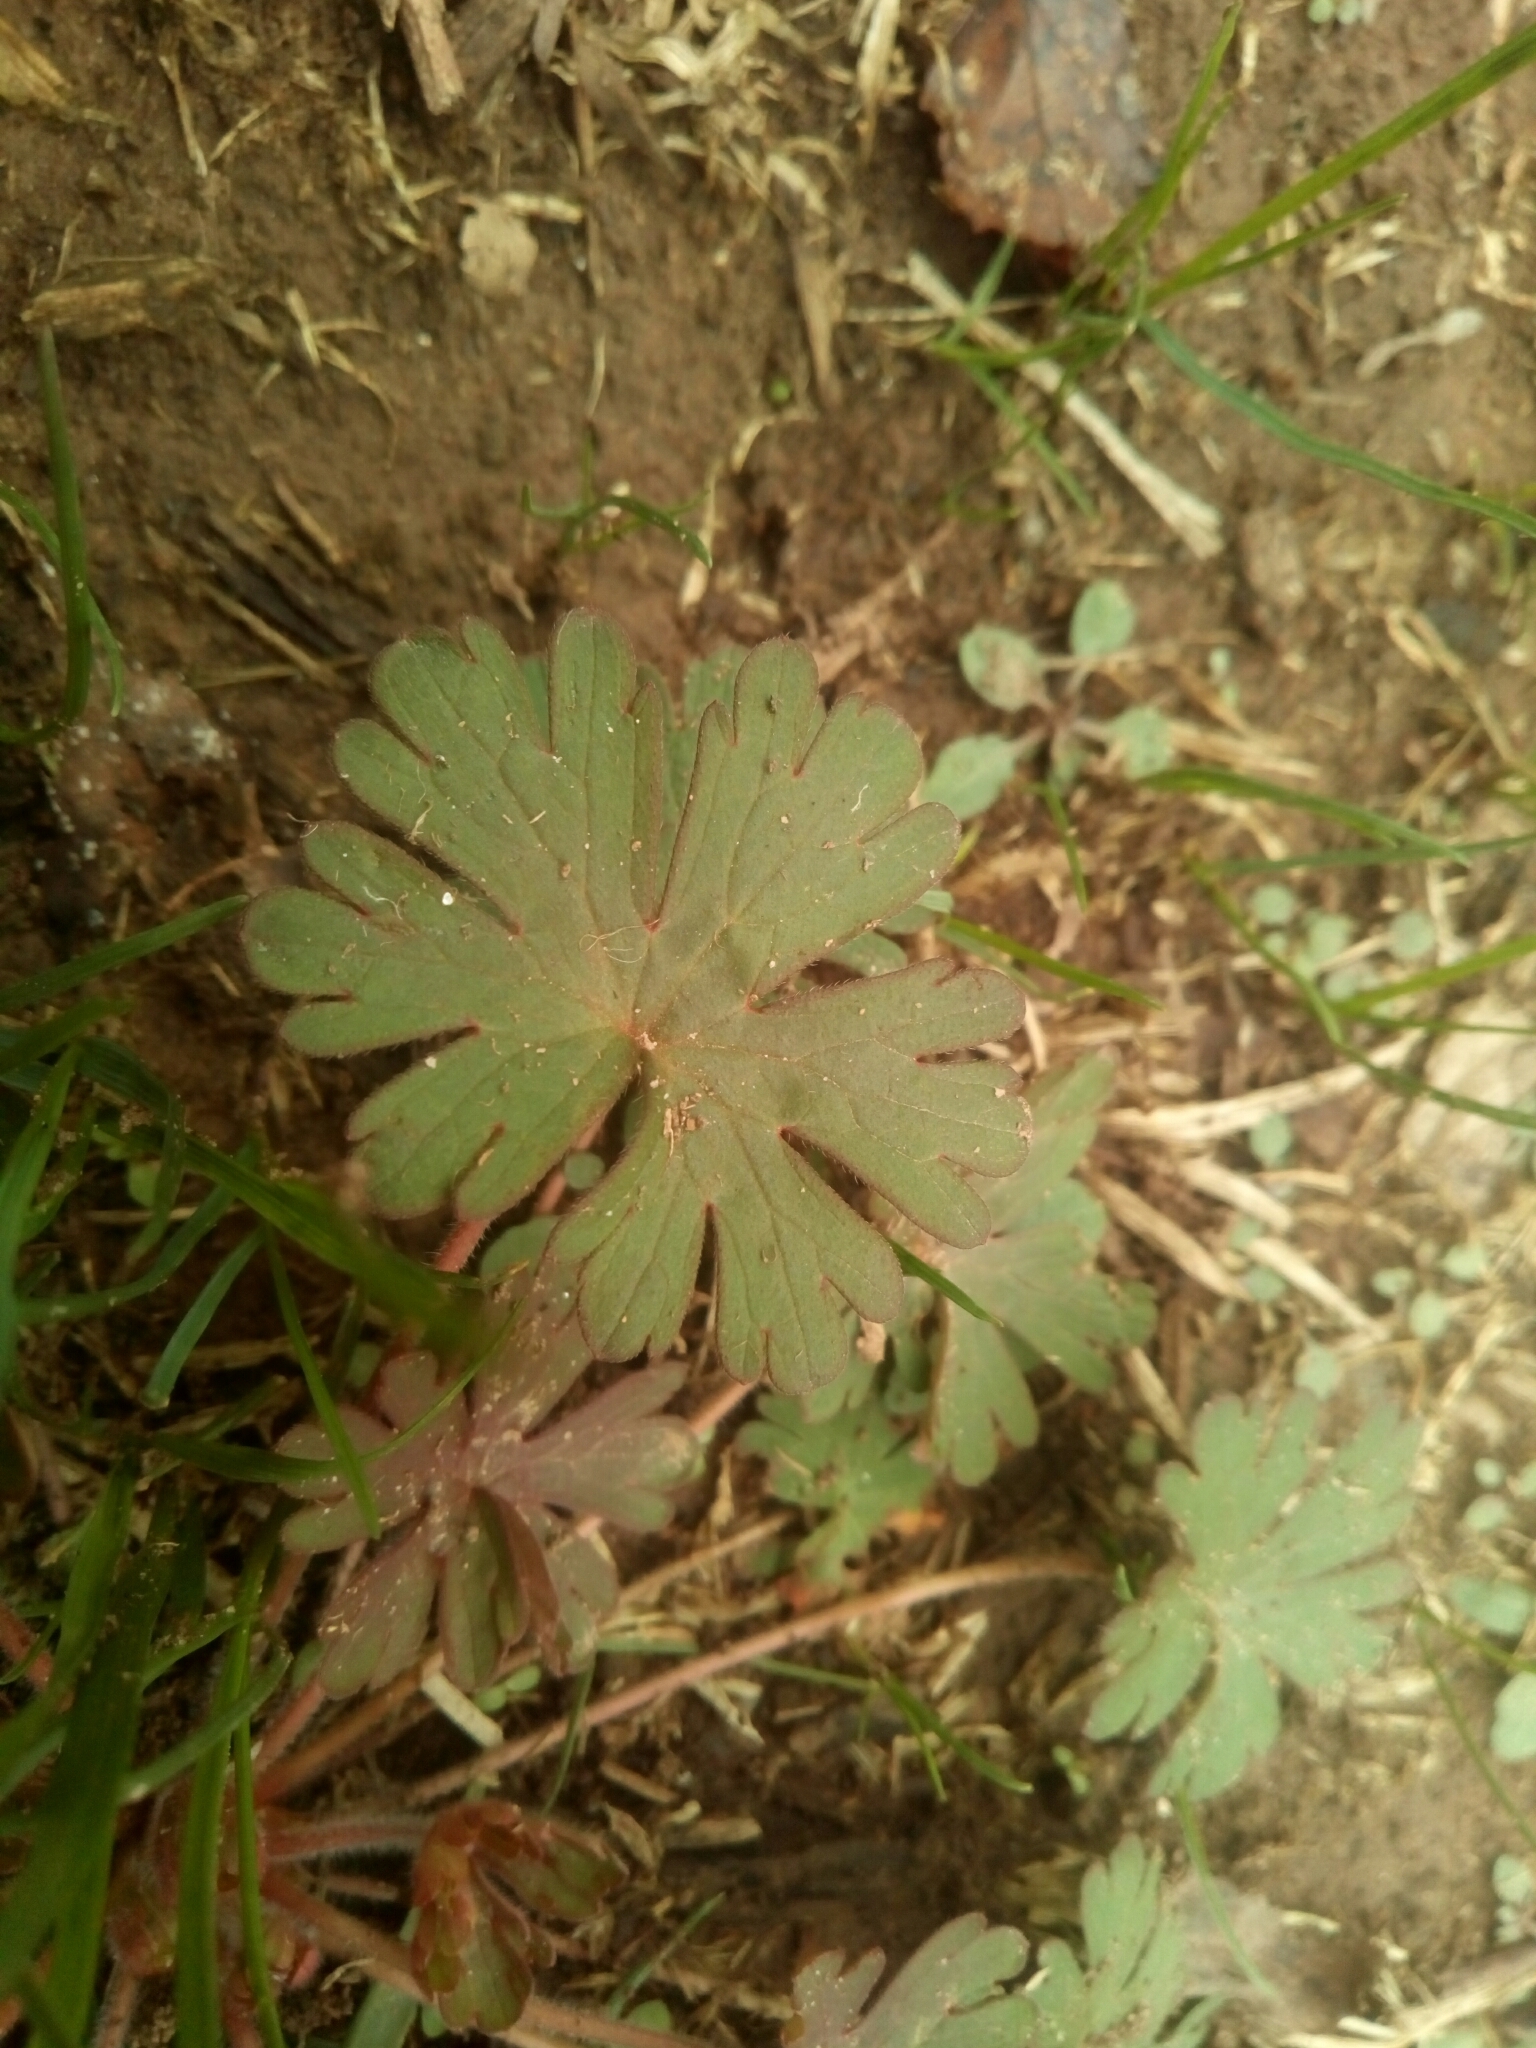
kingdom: Plantae
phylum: Tracheophyta
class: Magnoliopsida
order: Geraniales
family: Geraniaceae
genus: Geranium
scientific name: Geranium carolinianum
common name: Carolina crane's-bill
